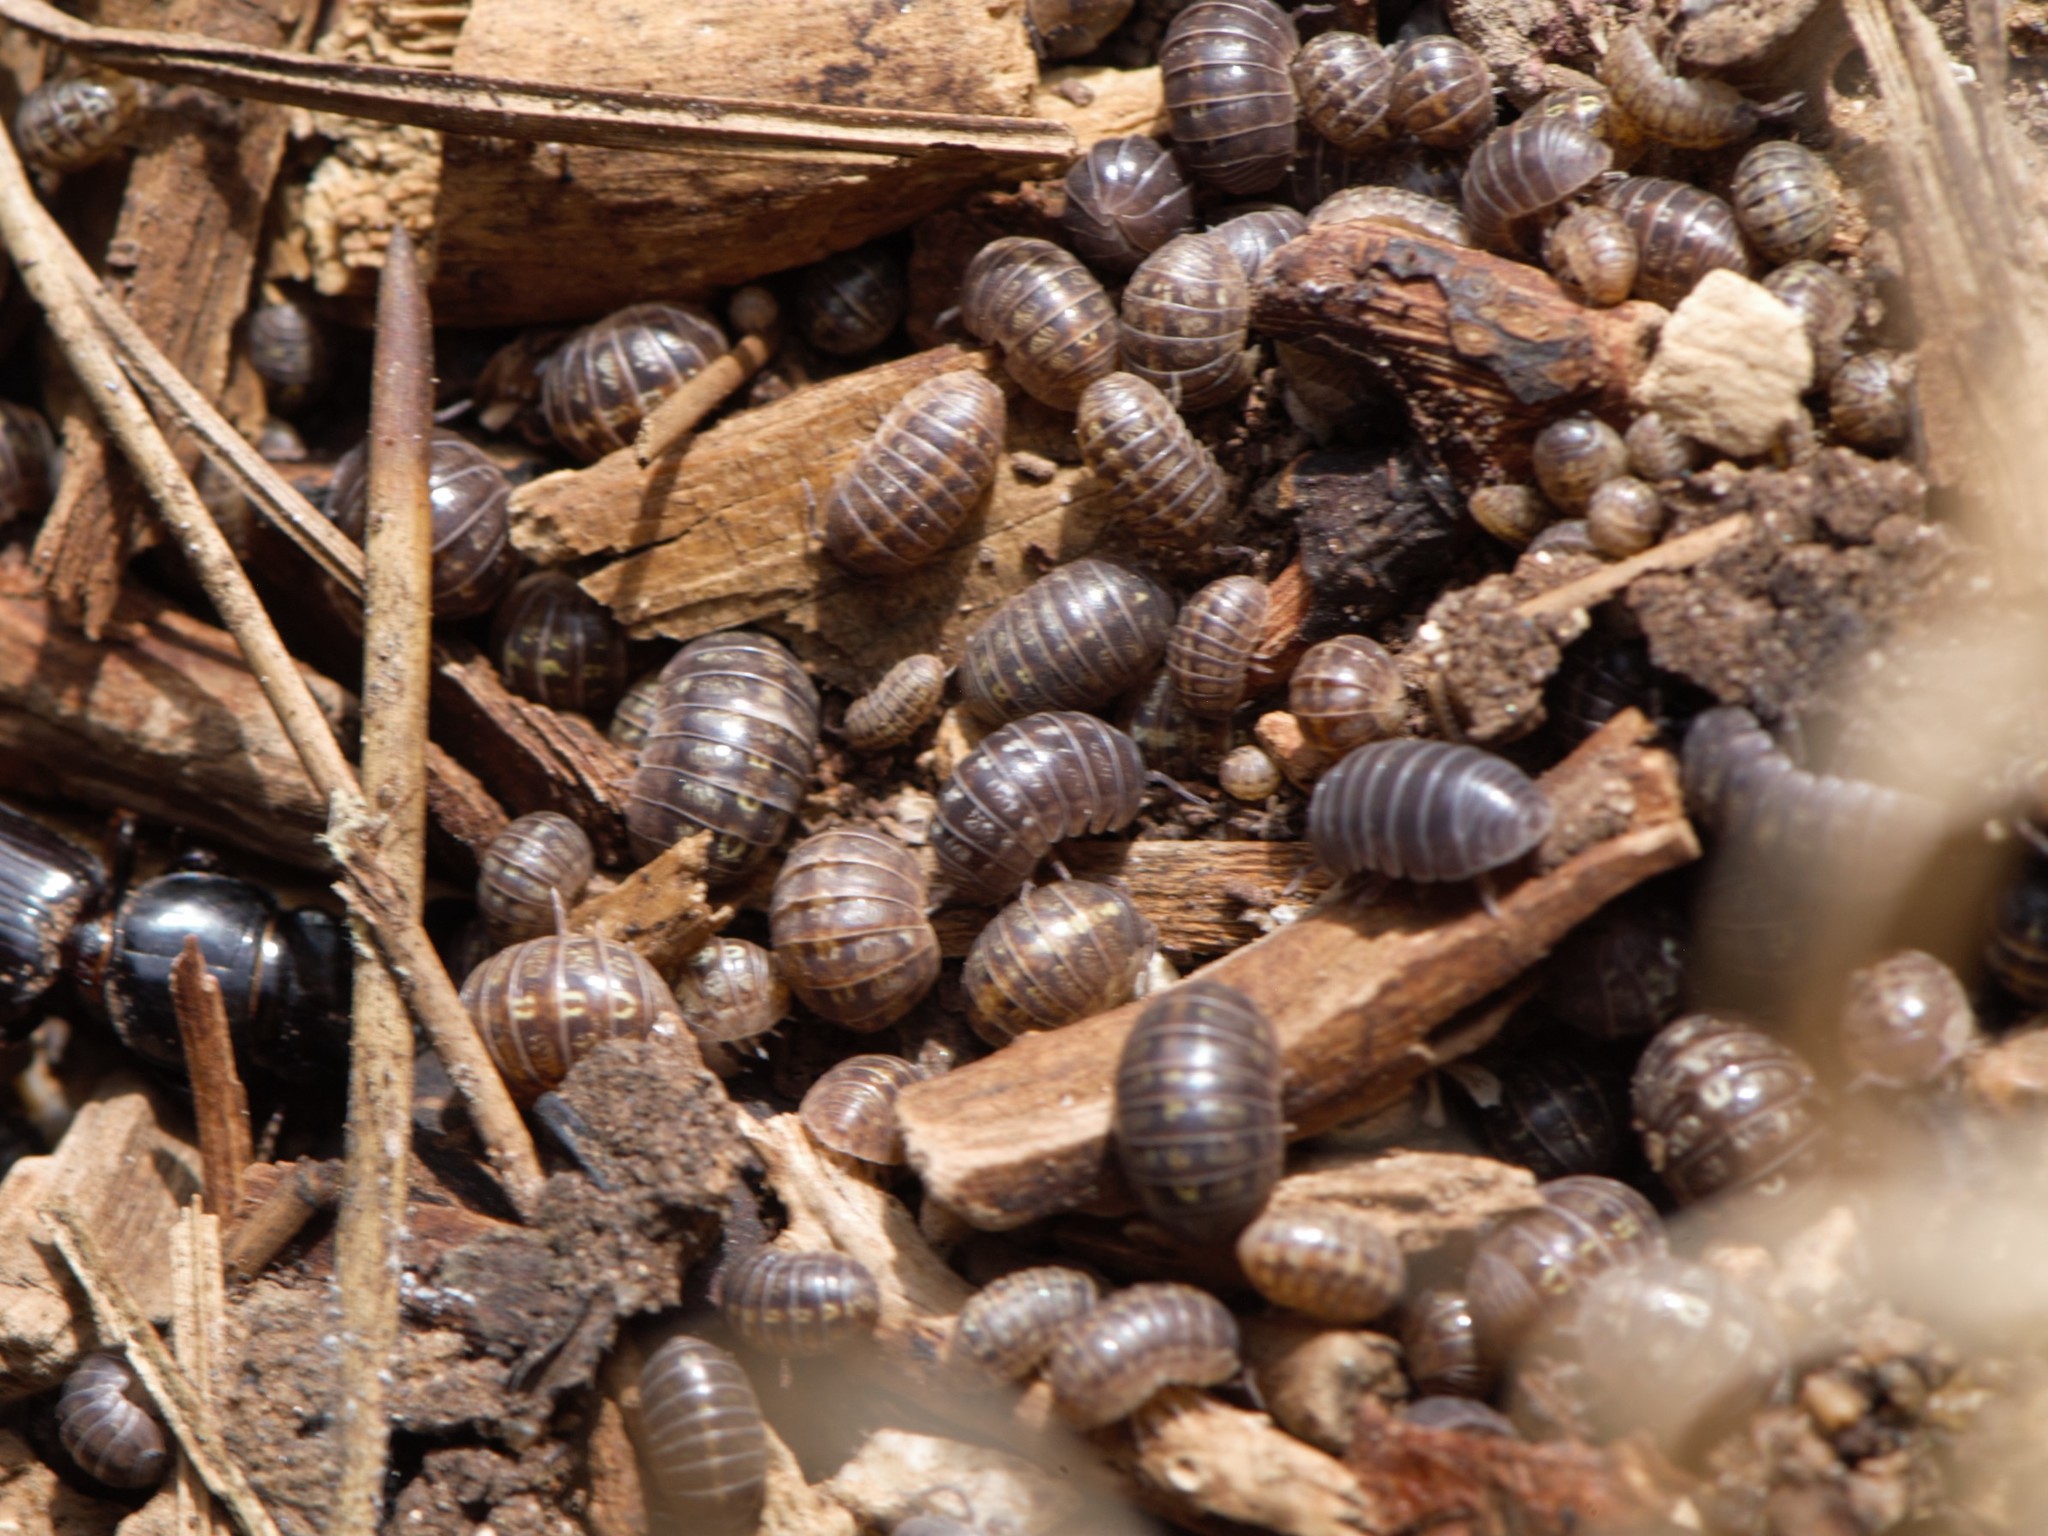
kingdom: Animalia
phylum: Arthropoda
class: Malacostraca
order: Isopoda
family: Armadillidiidae
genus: Armadillidium
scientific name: Armadillidium vulgare
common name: Common pill woodlouse
